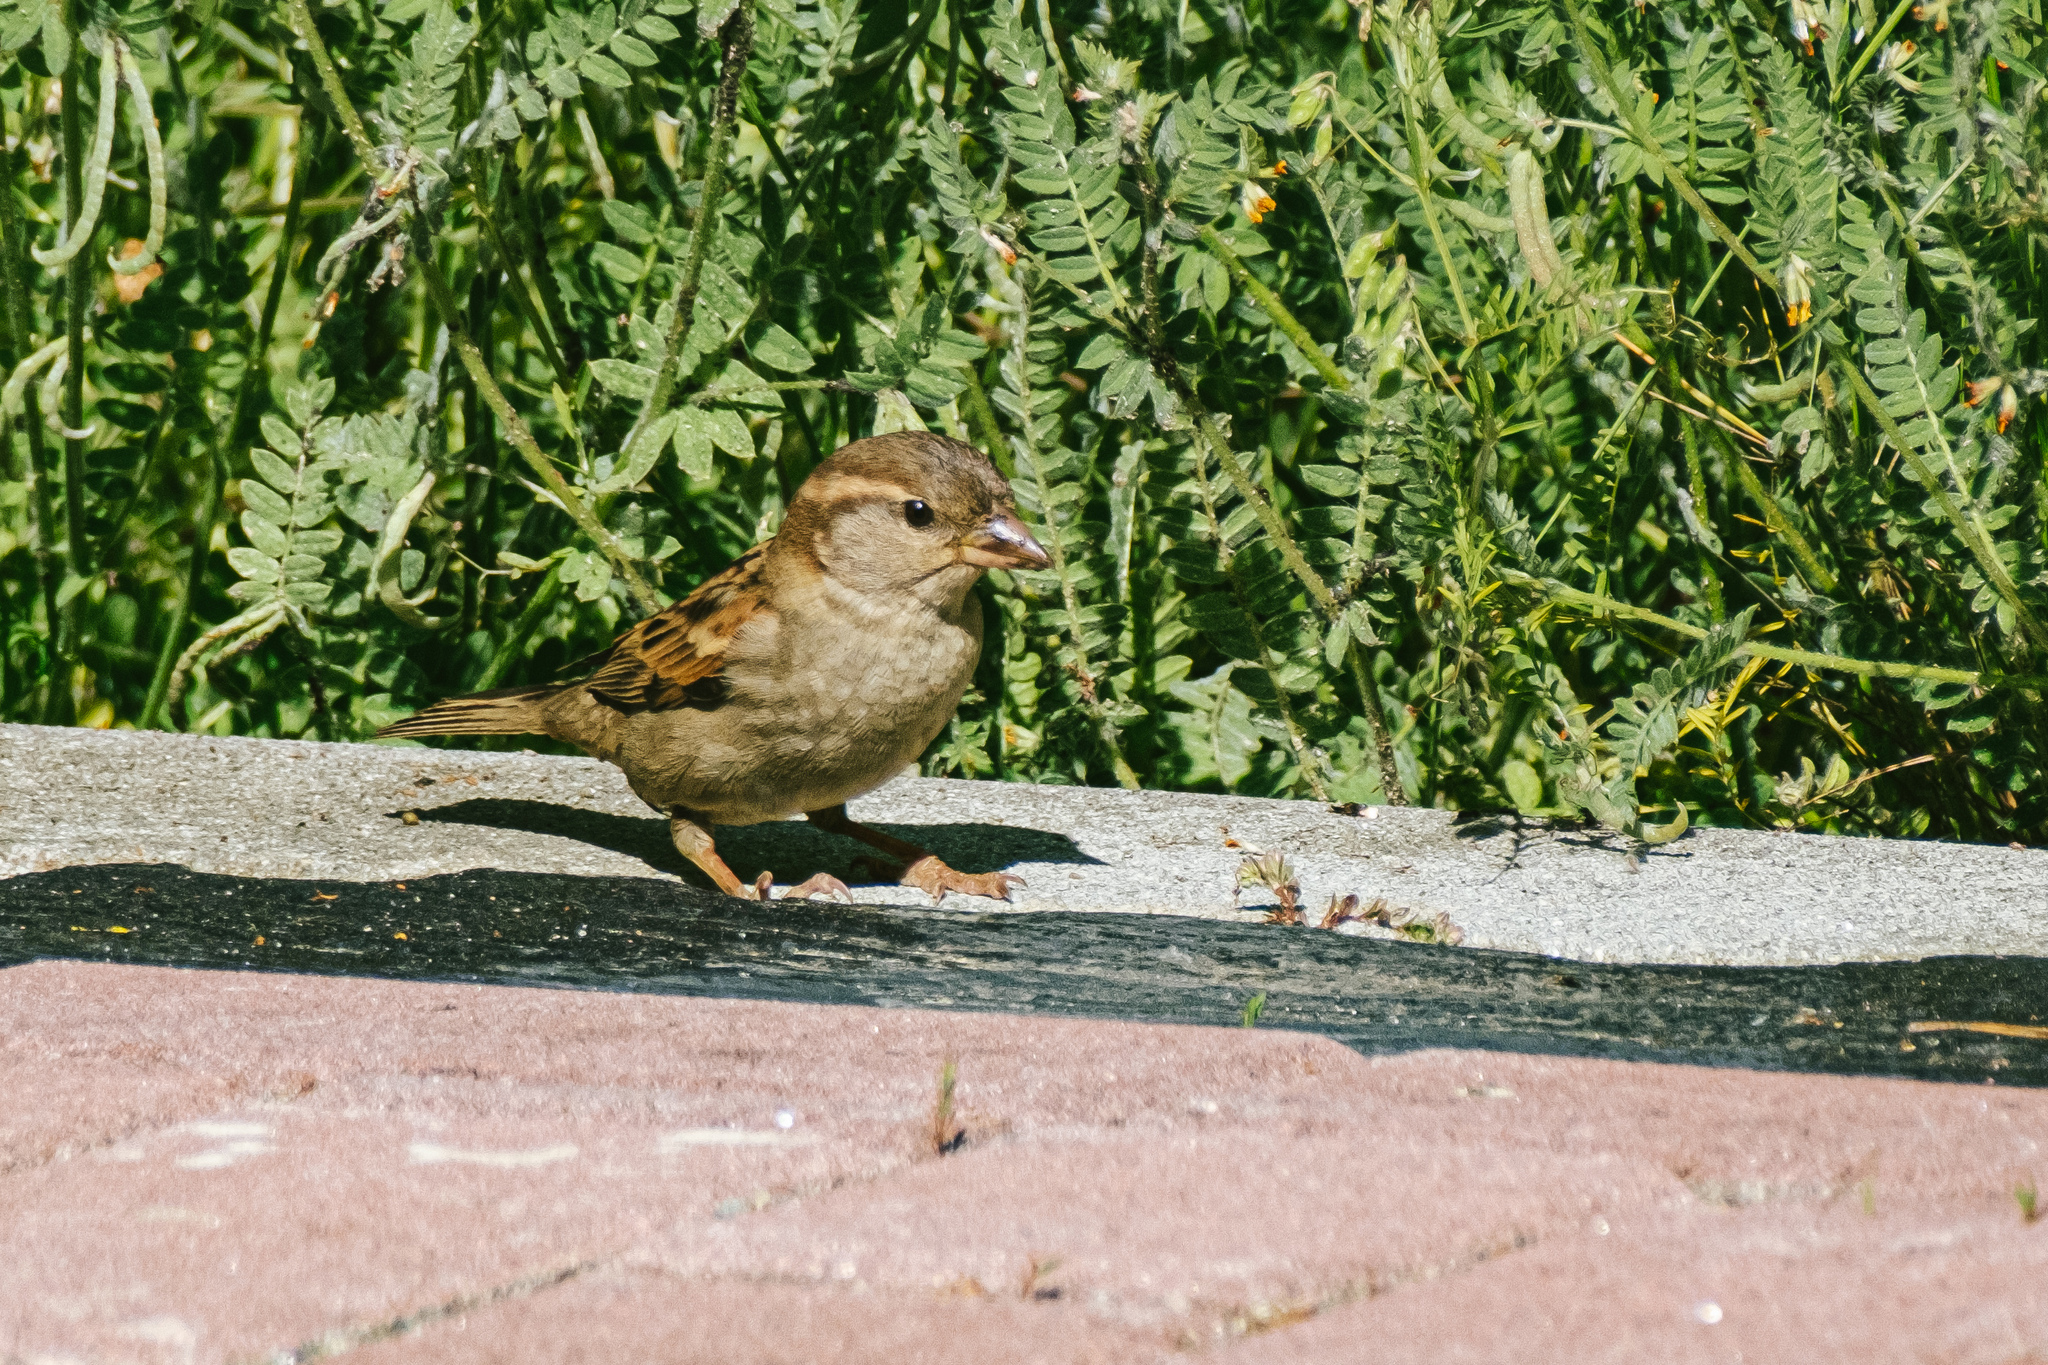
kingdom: Animalia
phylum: Chordata
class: Aves
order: Passeriformes
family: Passeridae
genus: Passer
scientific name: Passer domesticus
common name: House sparrow
